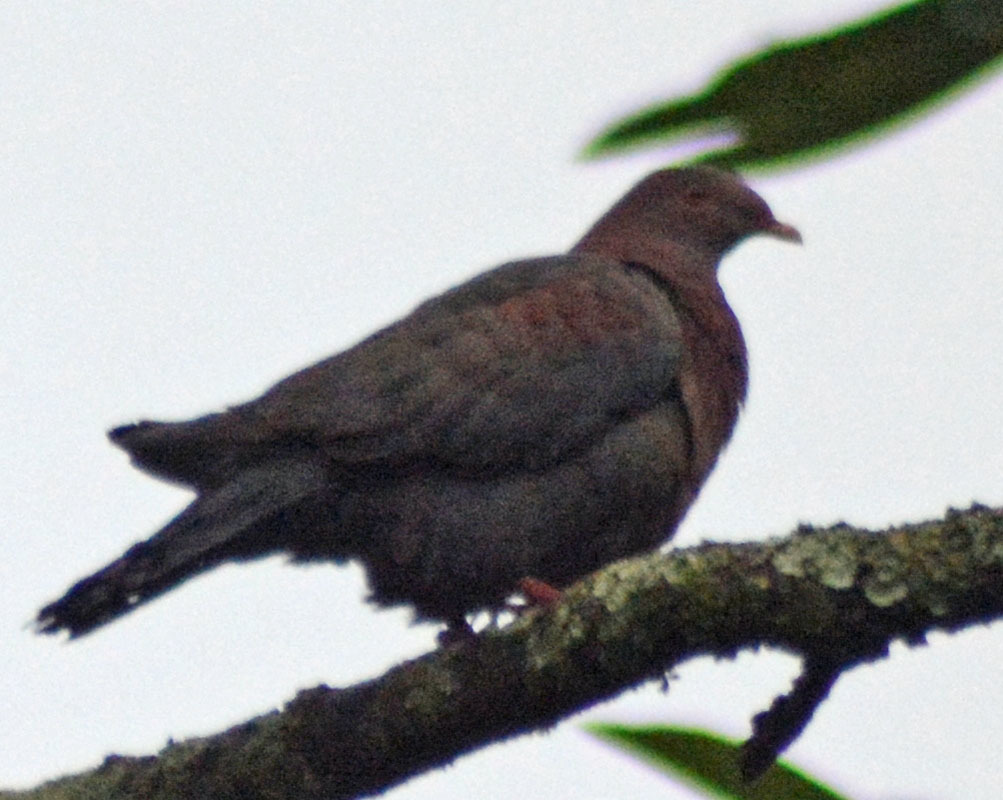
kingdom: Animalia
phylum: Chordata
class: Aves
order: Columbiformes
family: Columbidae
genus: Patagioenas
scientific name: Patagioenas flavirostris
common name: Red-billed pigeon
